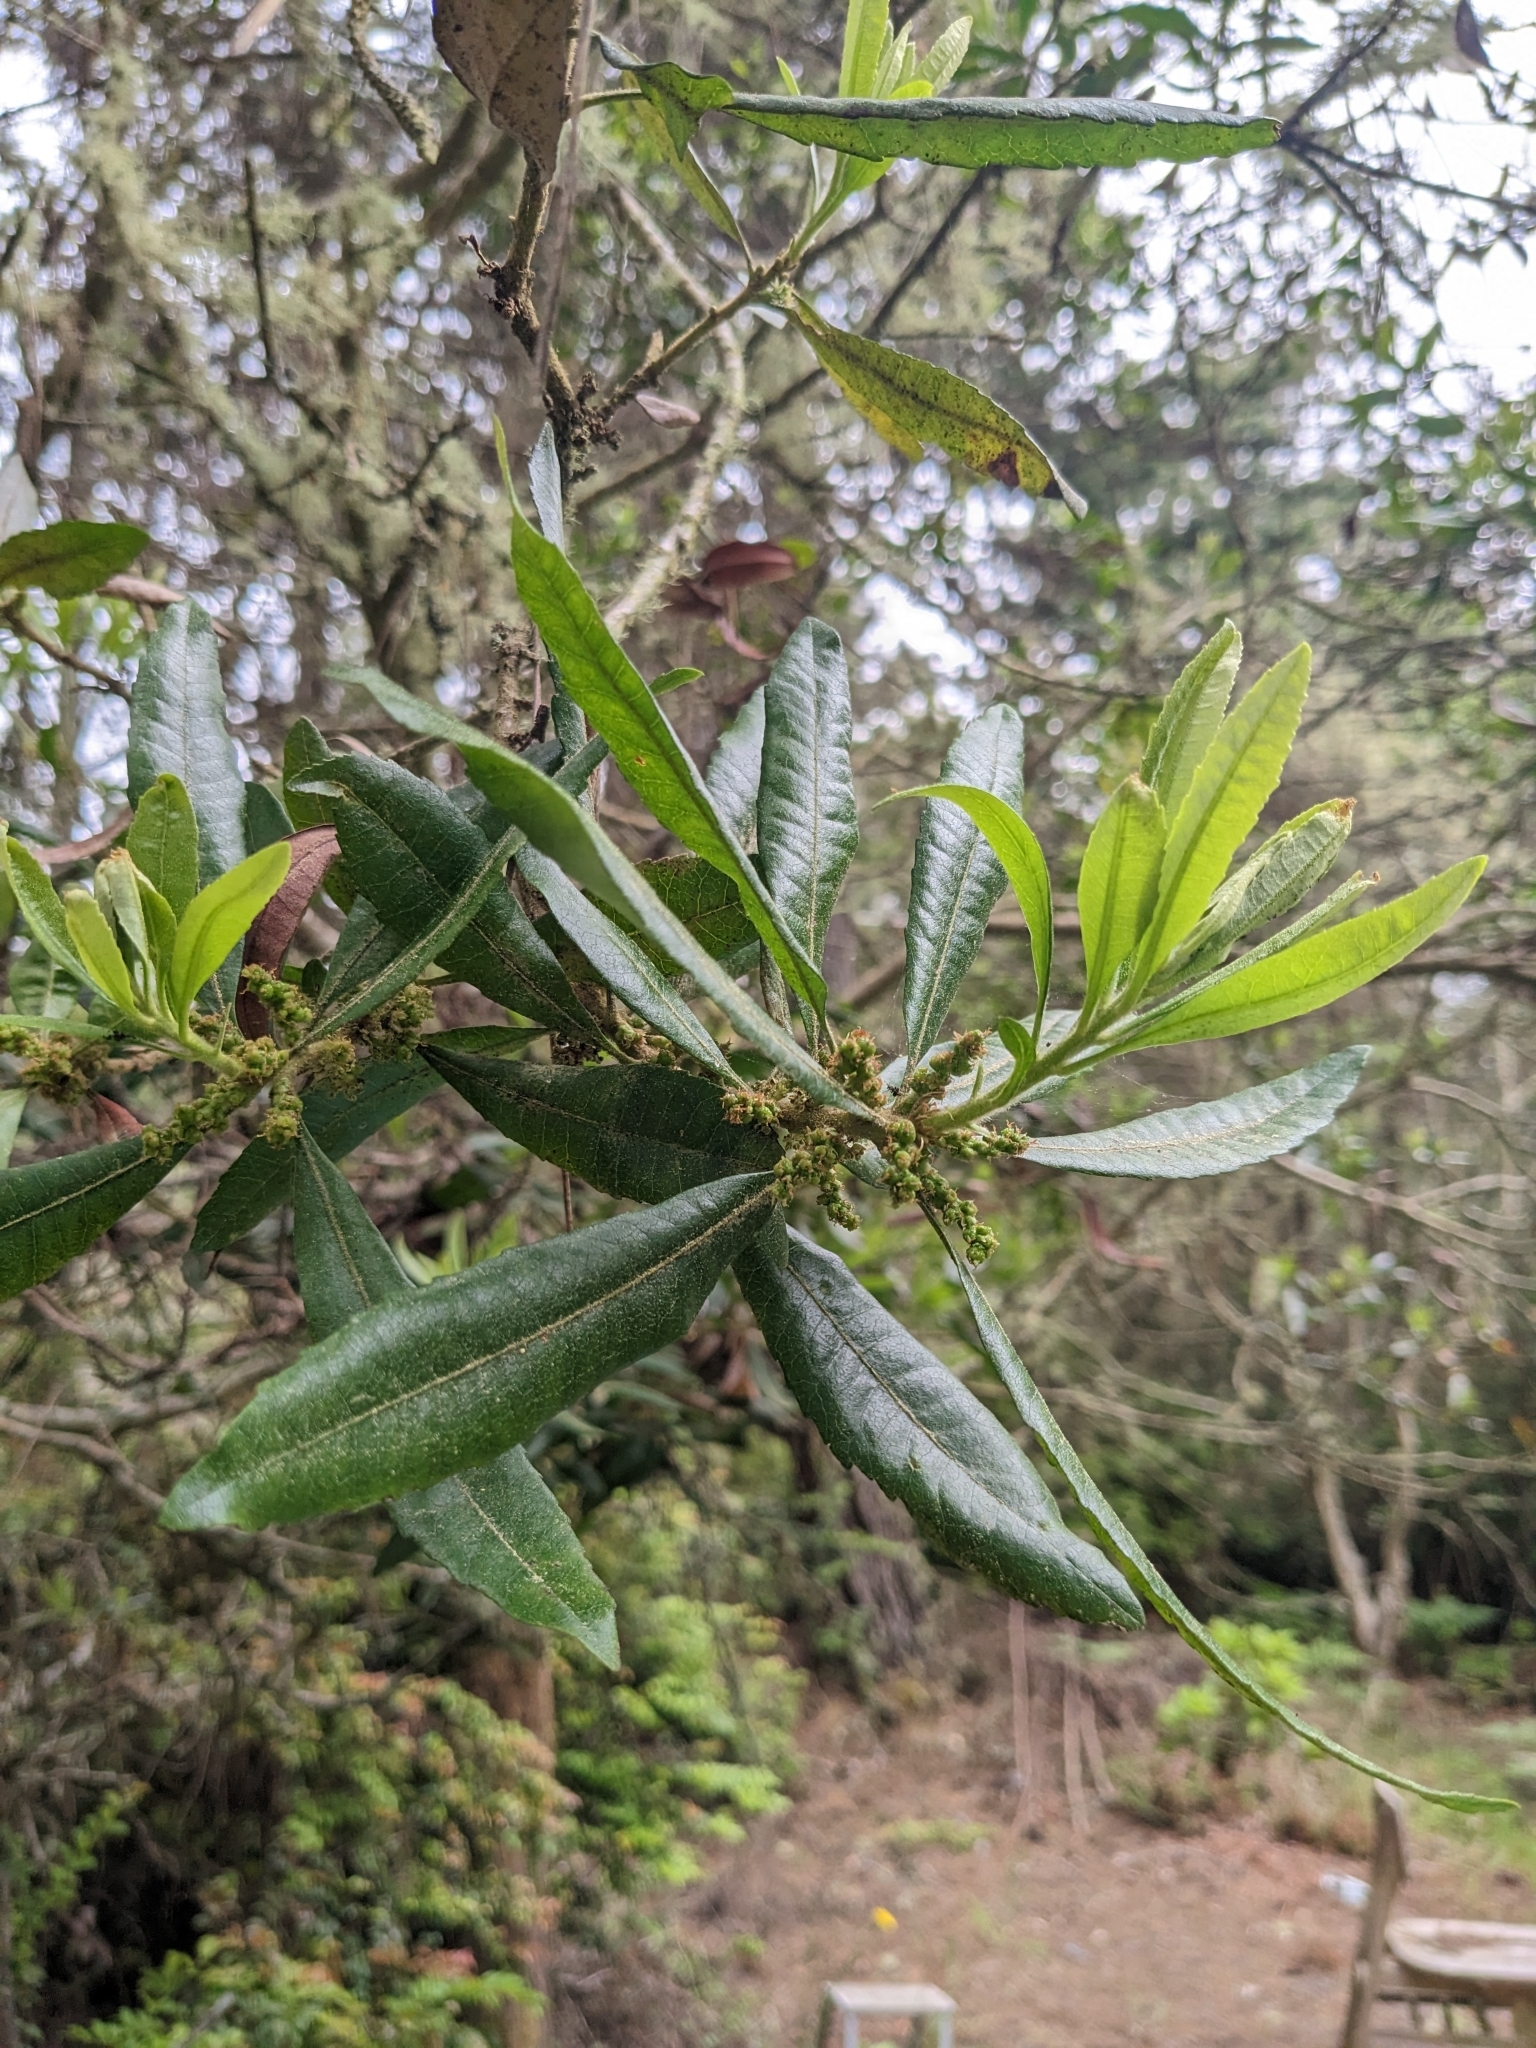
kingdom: Plantae
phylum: Tracheophyta
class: Magnoliopsida
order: Fagales
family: Myricaceae
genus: Morella
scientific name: Morella californica
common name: California wax-myrtle
